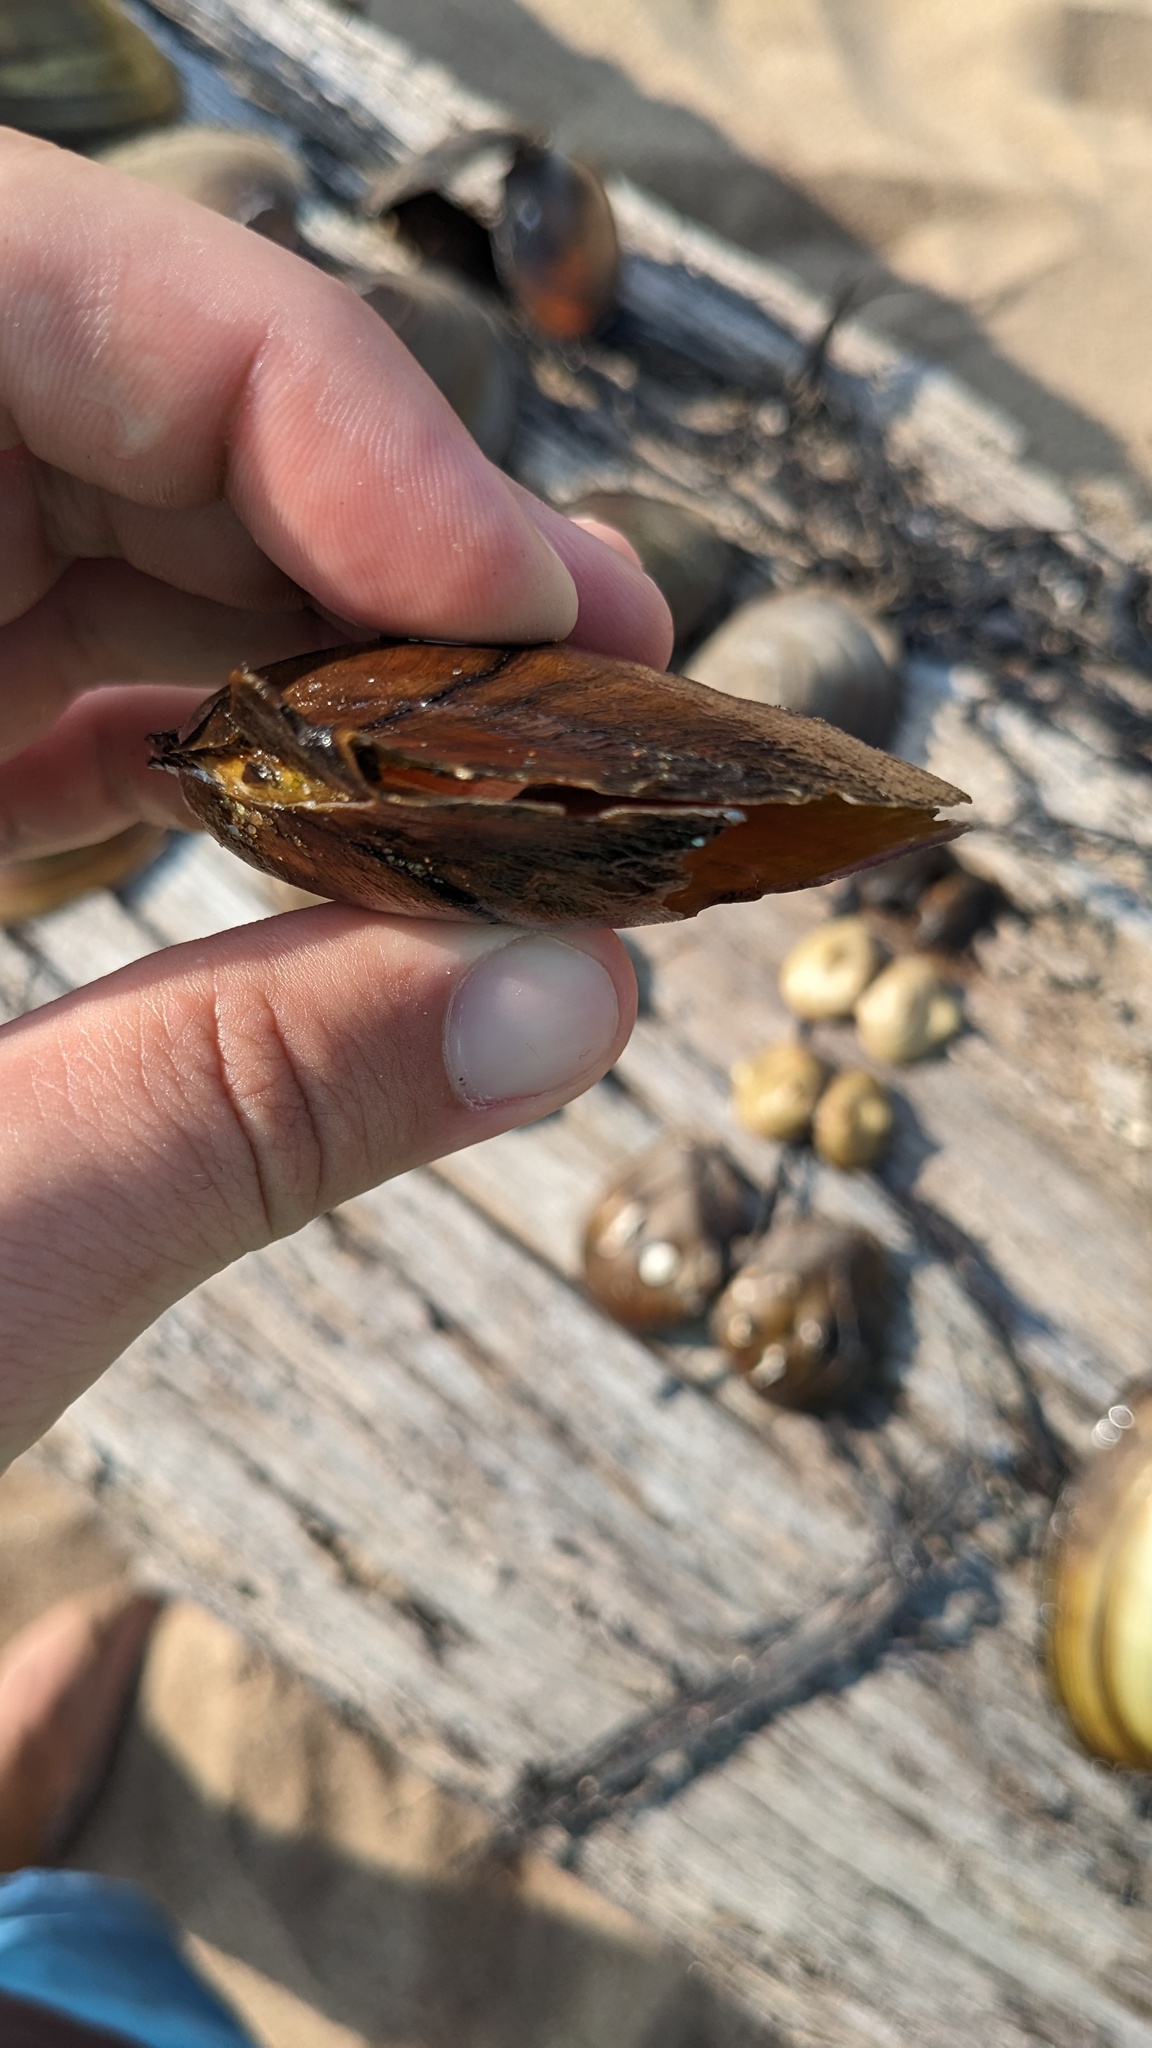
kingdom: Animalia
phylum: Mollusca
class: Bivalvia
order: Unionida
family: Unionidae
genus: Potamilus
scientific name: Potamilus alatus
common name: Pink heelsplitter
